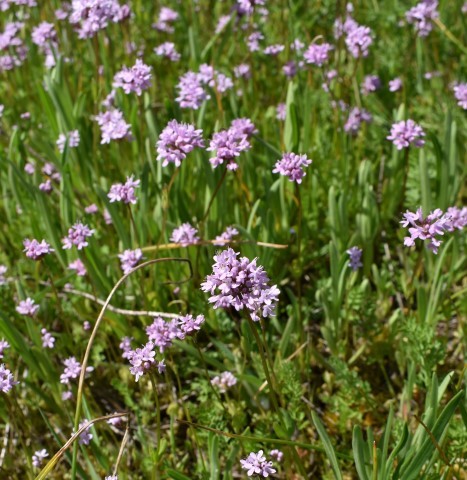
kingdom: Plantae
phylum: Tracheophyta
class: Magnoliopsida
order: Dipsacales
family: Caprifoliaceae
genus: Plectritis
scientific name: Plectritis congesta
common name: Pink plectritis
